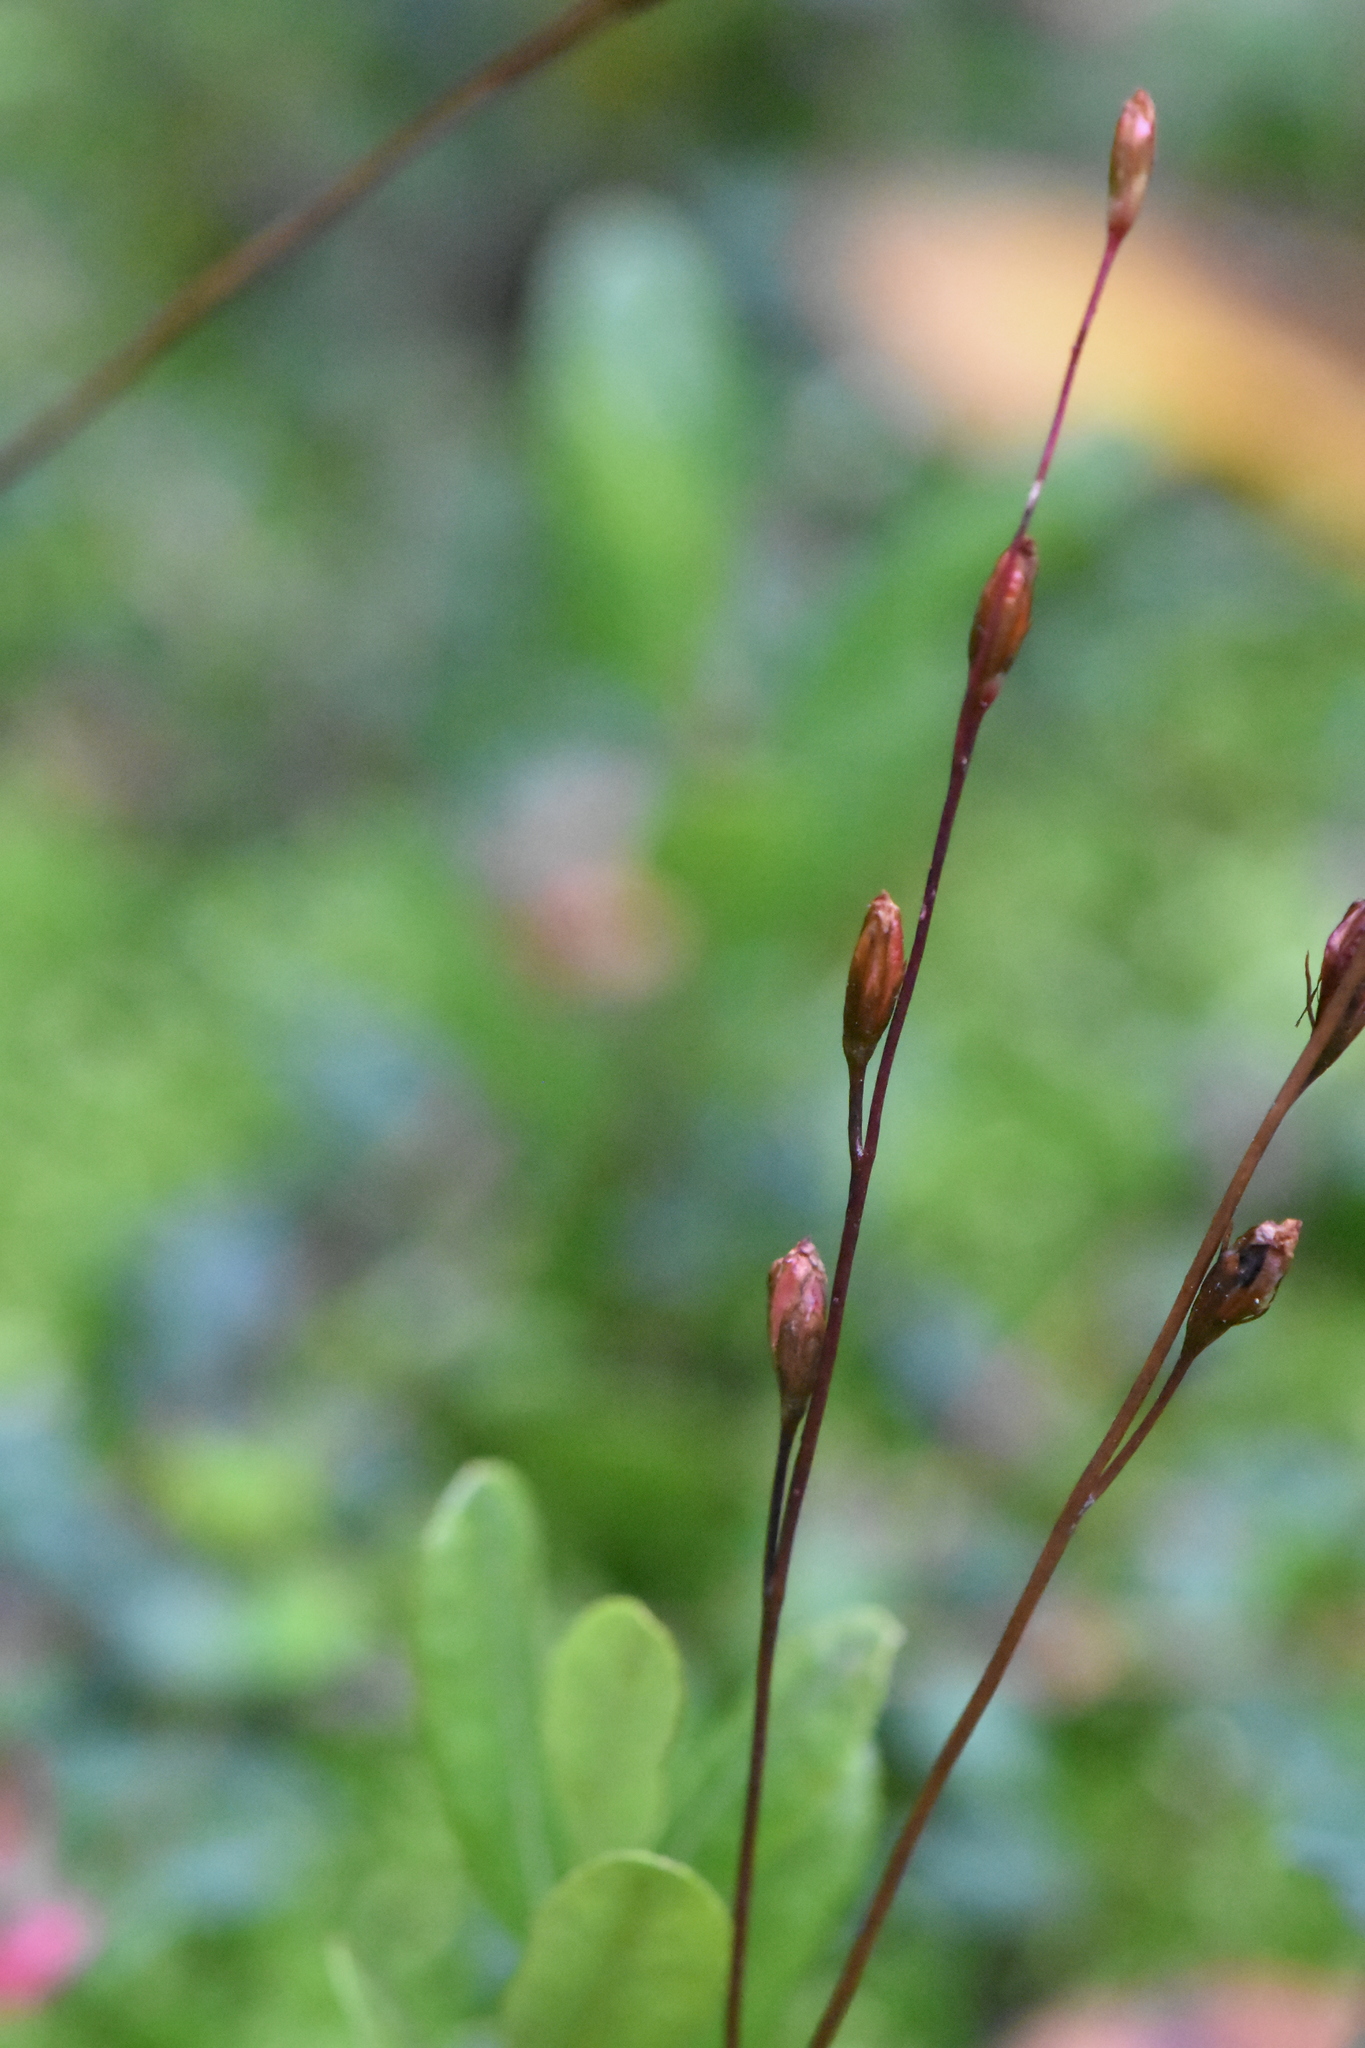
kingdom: Plantae
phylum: Tracheophyta
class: Magnoliopsida
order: Caryophyllales
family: Droseraceae
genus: Drosera
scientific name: Drosera rotundifolia
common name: Round-leaved sundew
